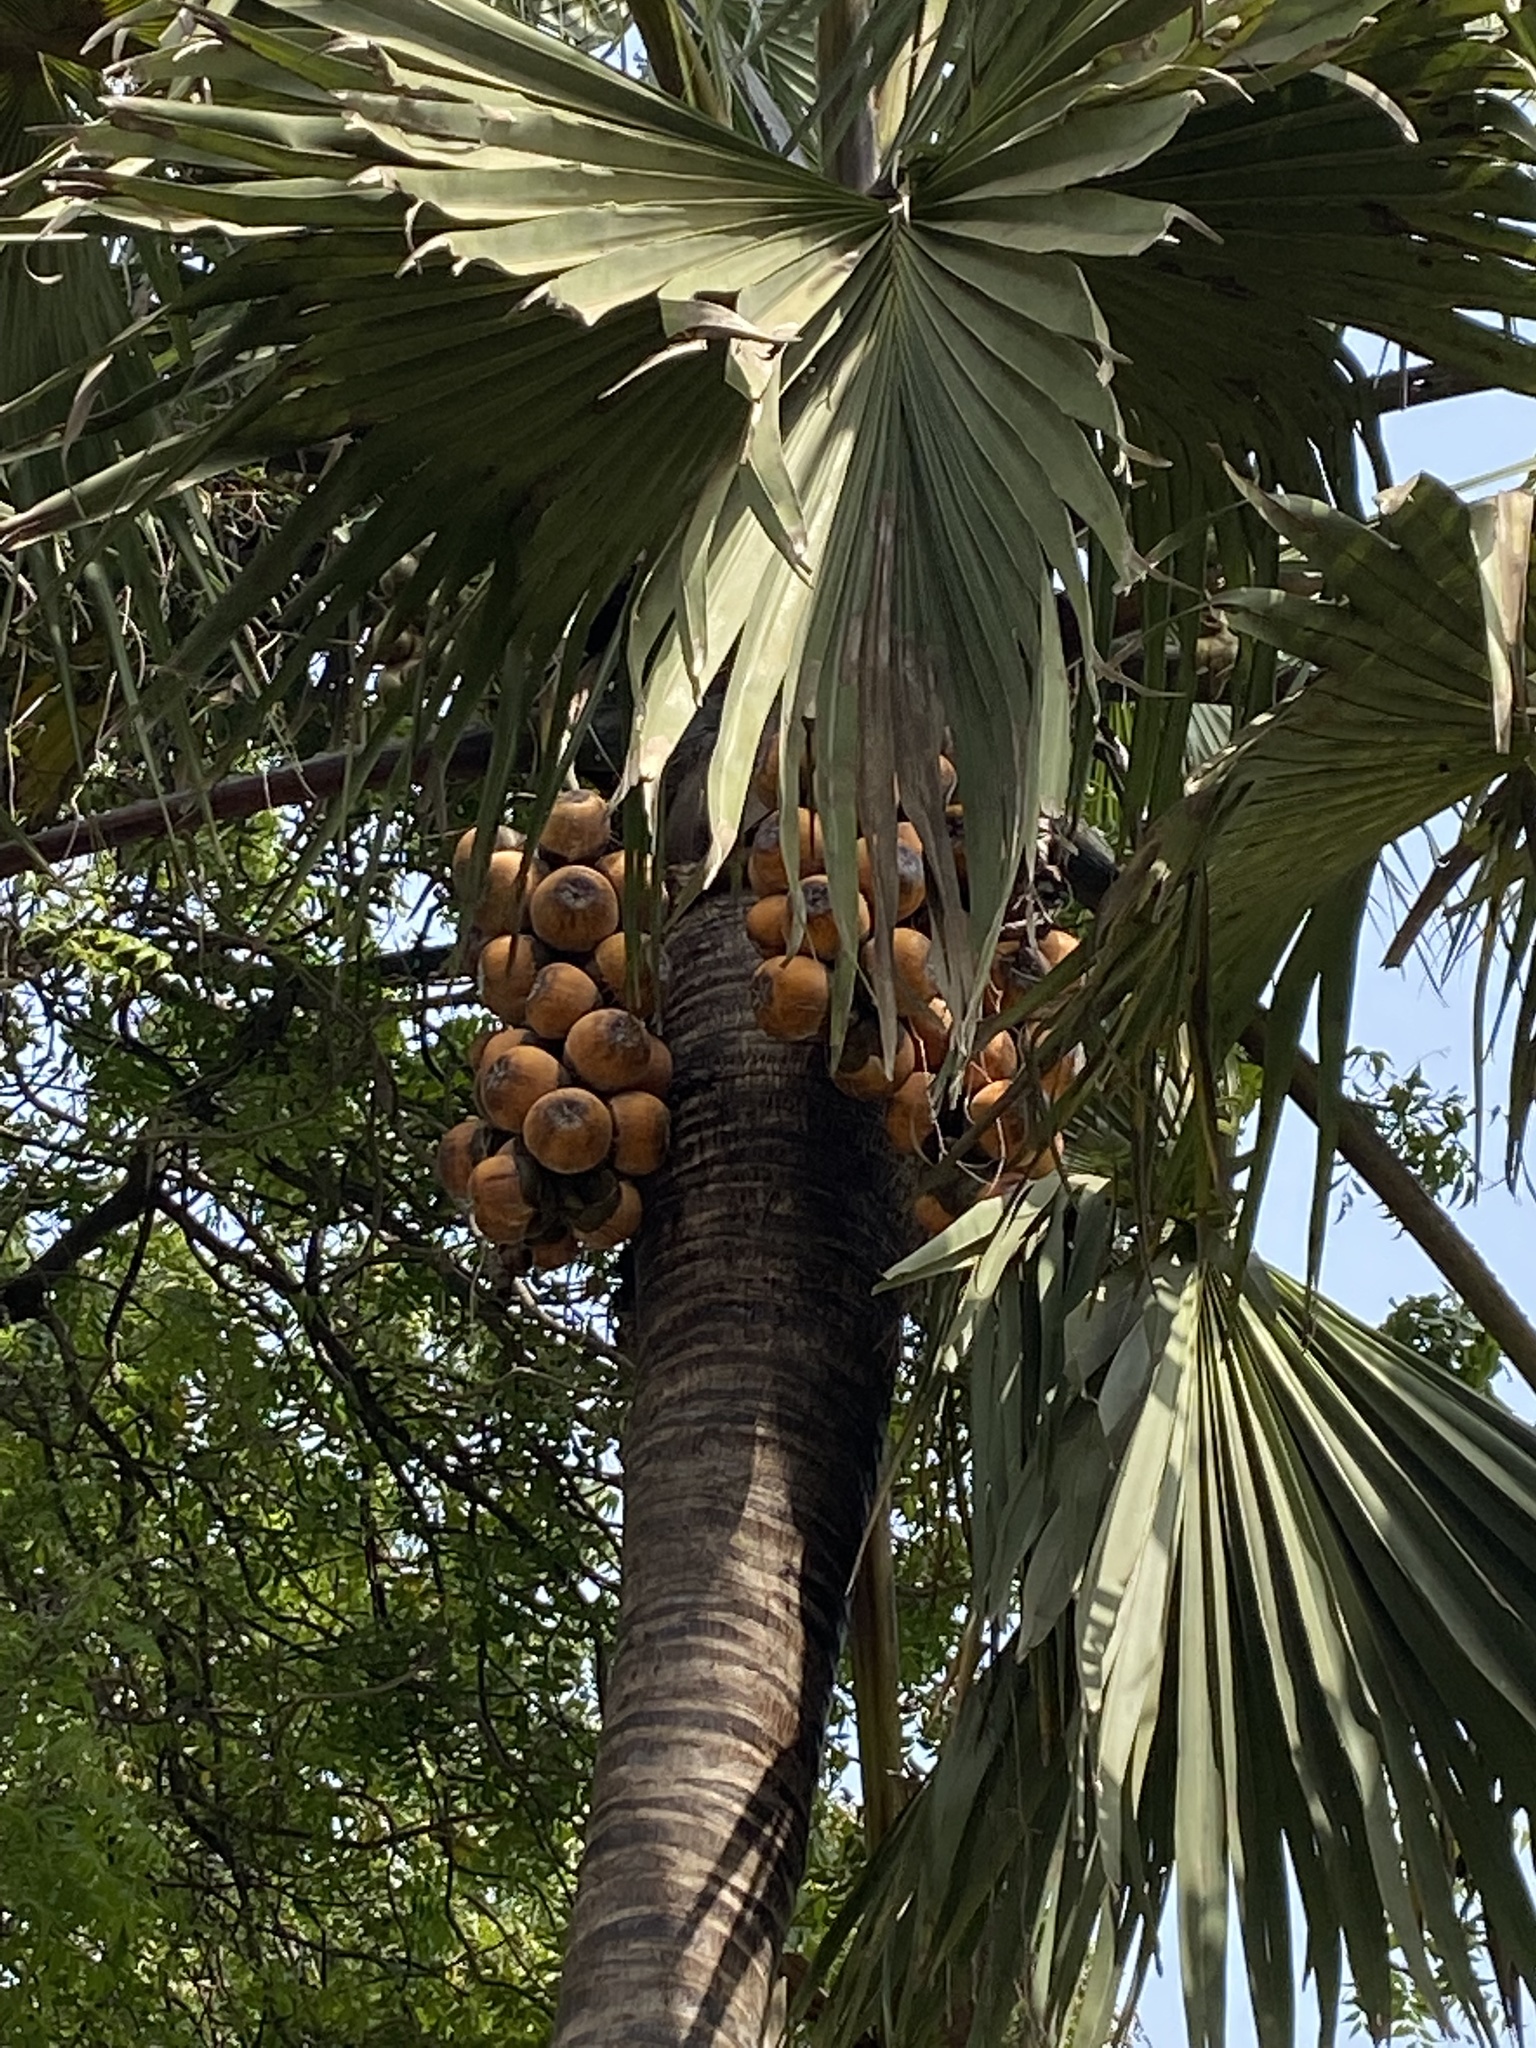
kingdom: Plantae
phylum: Tracheophyta
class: Liliopsida
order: Arecales
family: Arecaceae
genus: Borassus
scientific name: Borassus aethiopum
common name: Elephant palm
